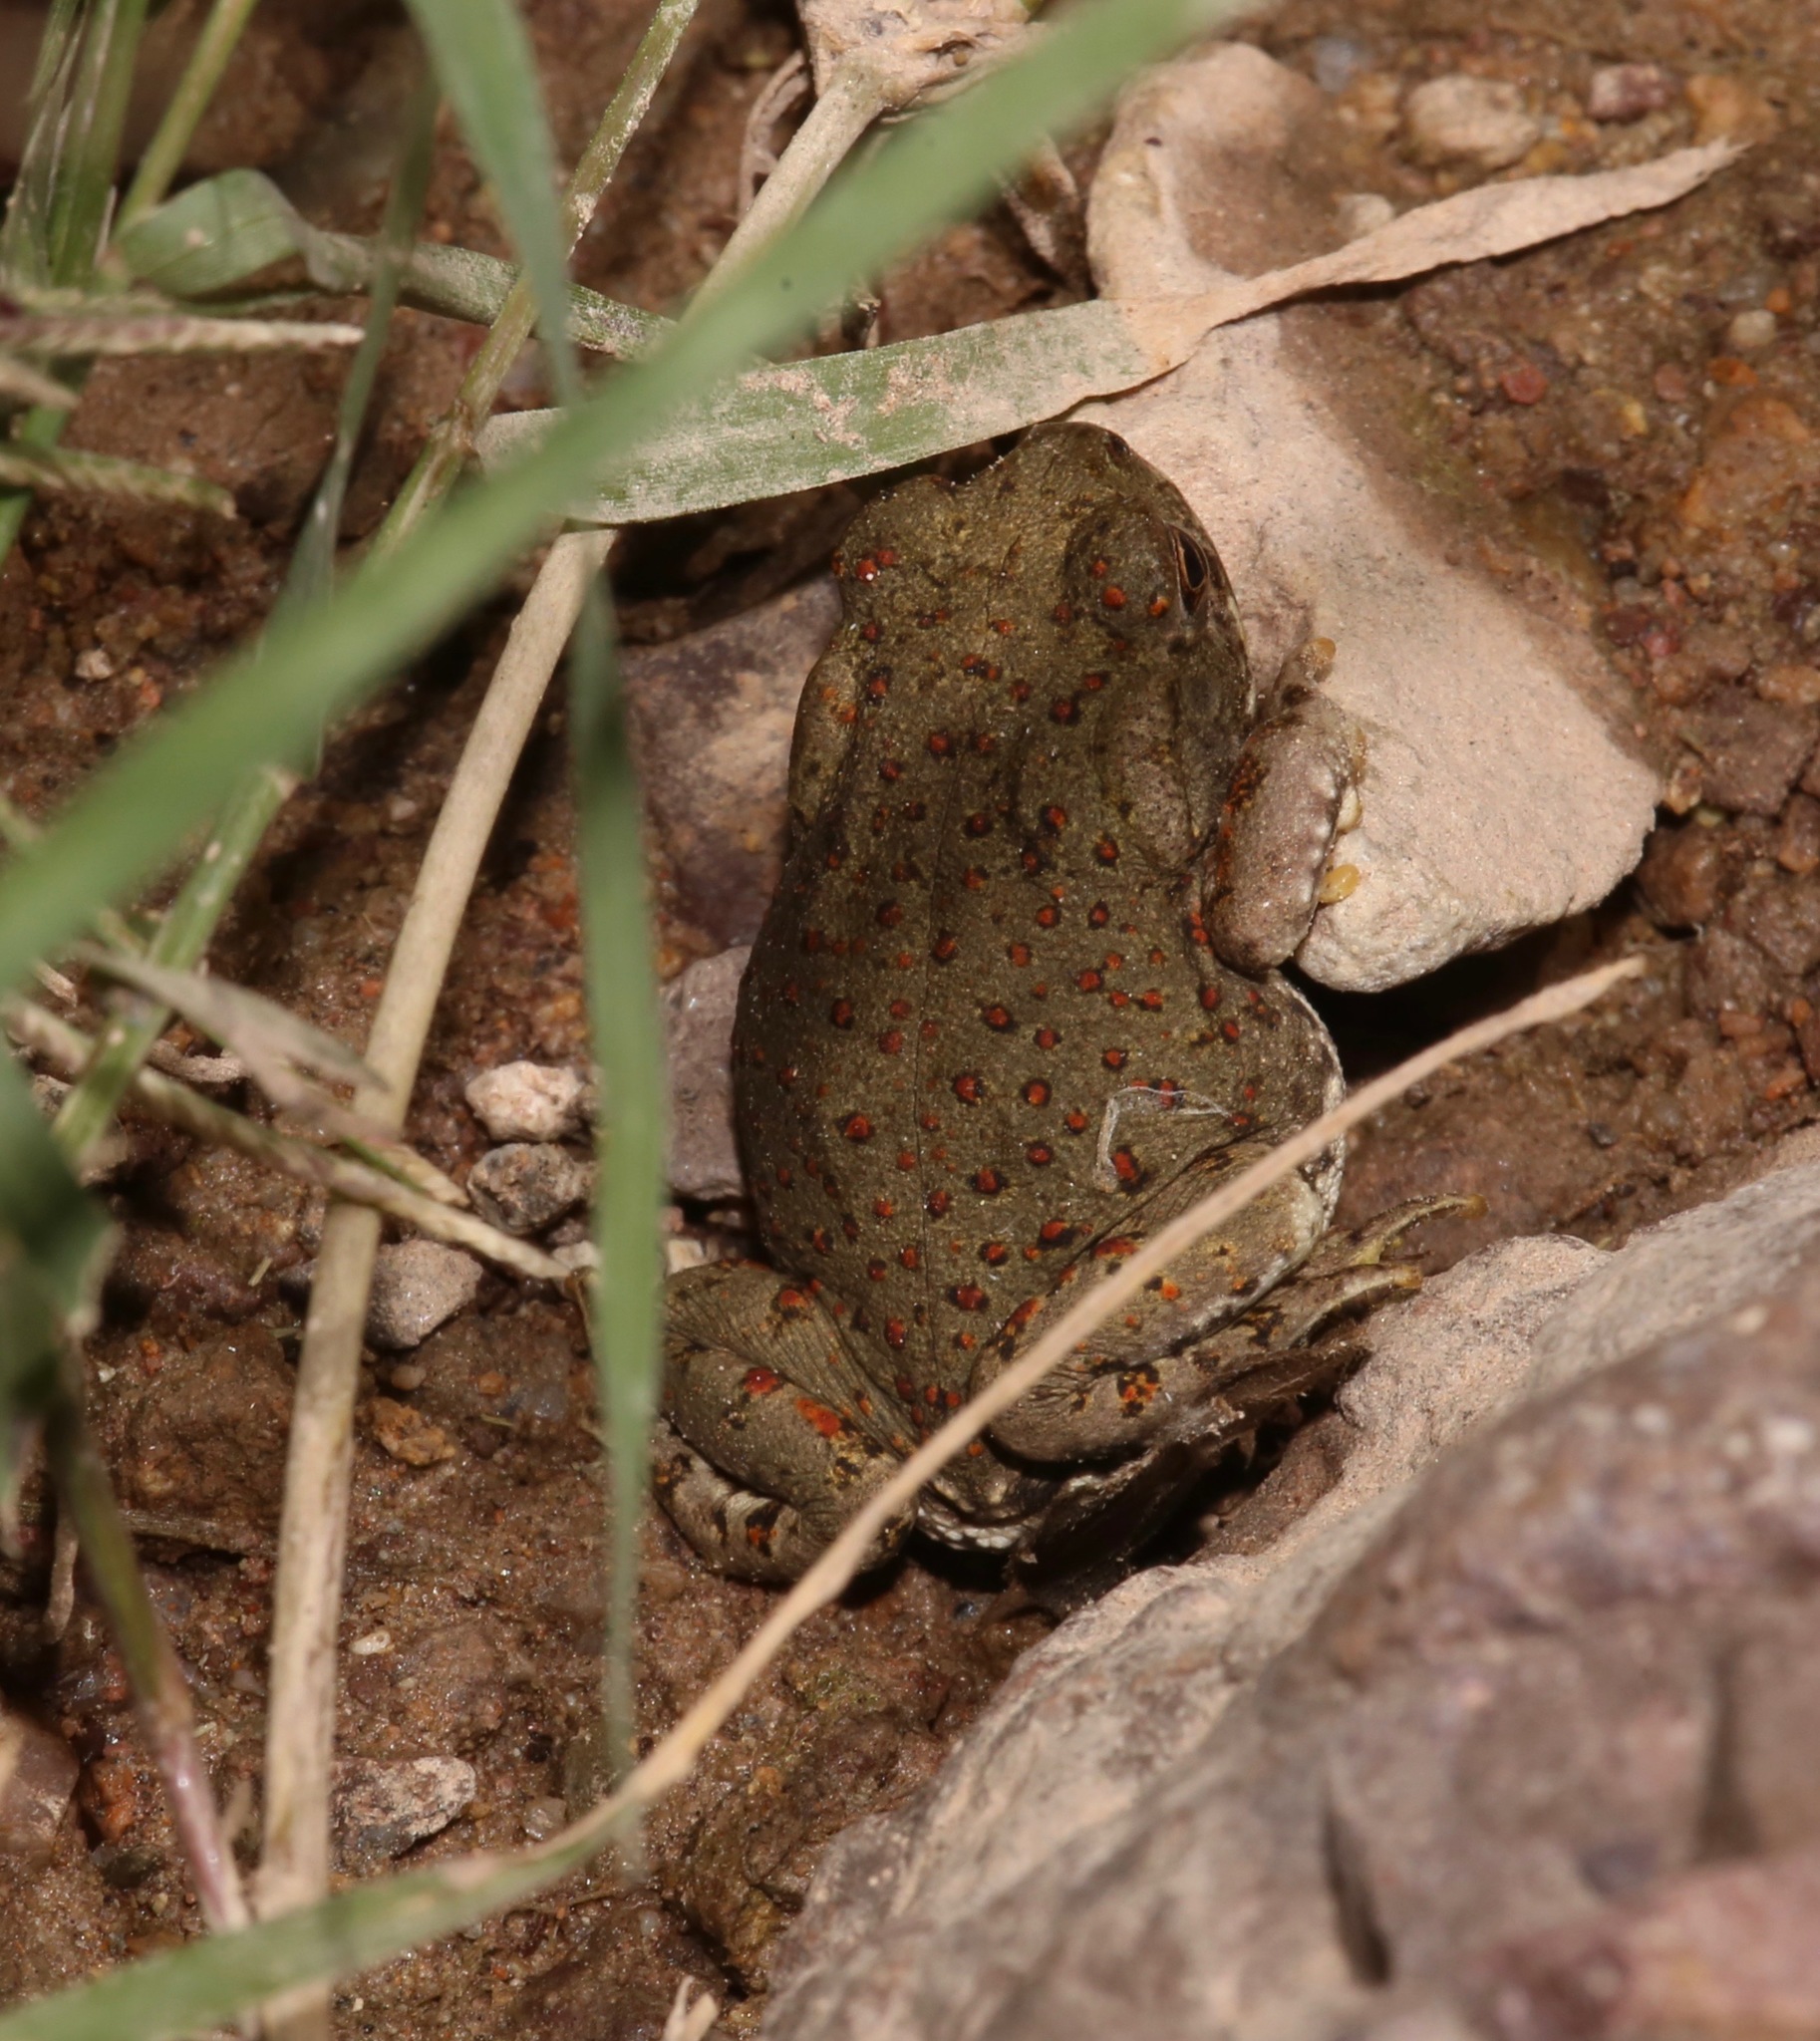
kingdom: Animalia
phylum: Chordata
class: Amphibia
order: Anura
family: Bufonidae
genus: Incilius
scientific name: Incilius alvarius
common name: Sonoran desert toad
